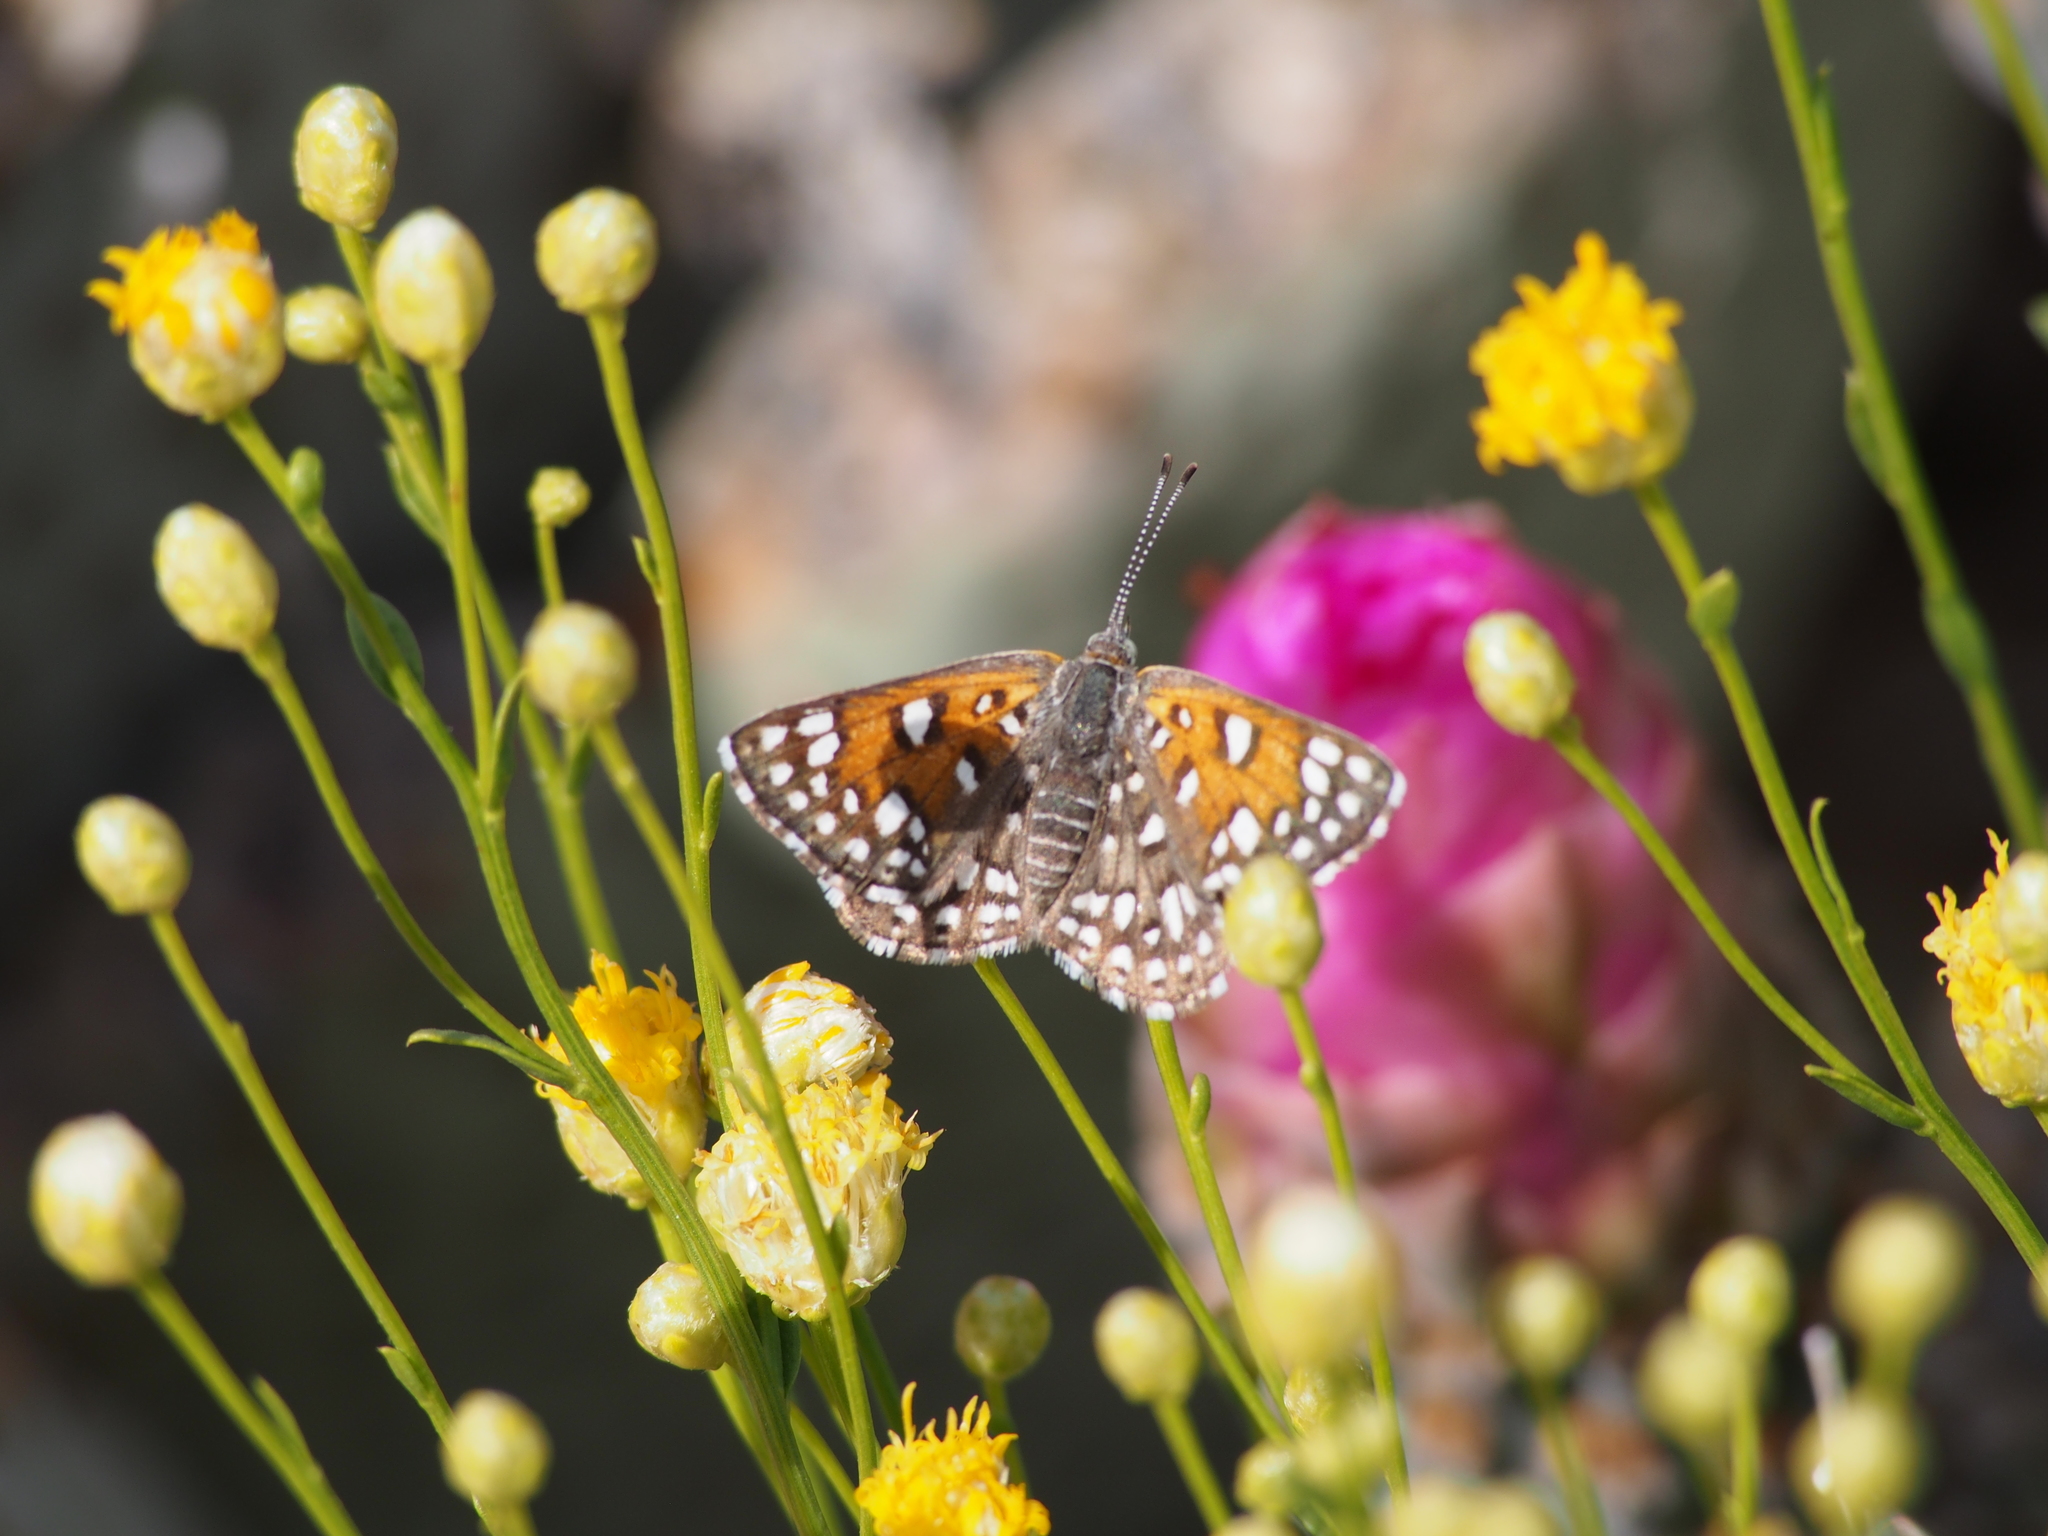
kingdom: Animalia
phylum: Arthropoda
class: Insecta
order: Lepidoptera
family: Riodinidae
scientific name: Riodinidae
